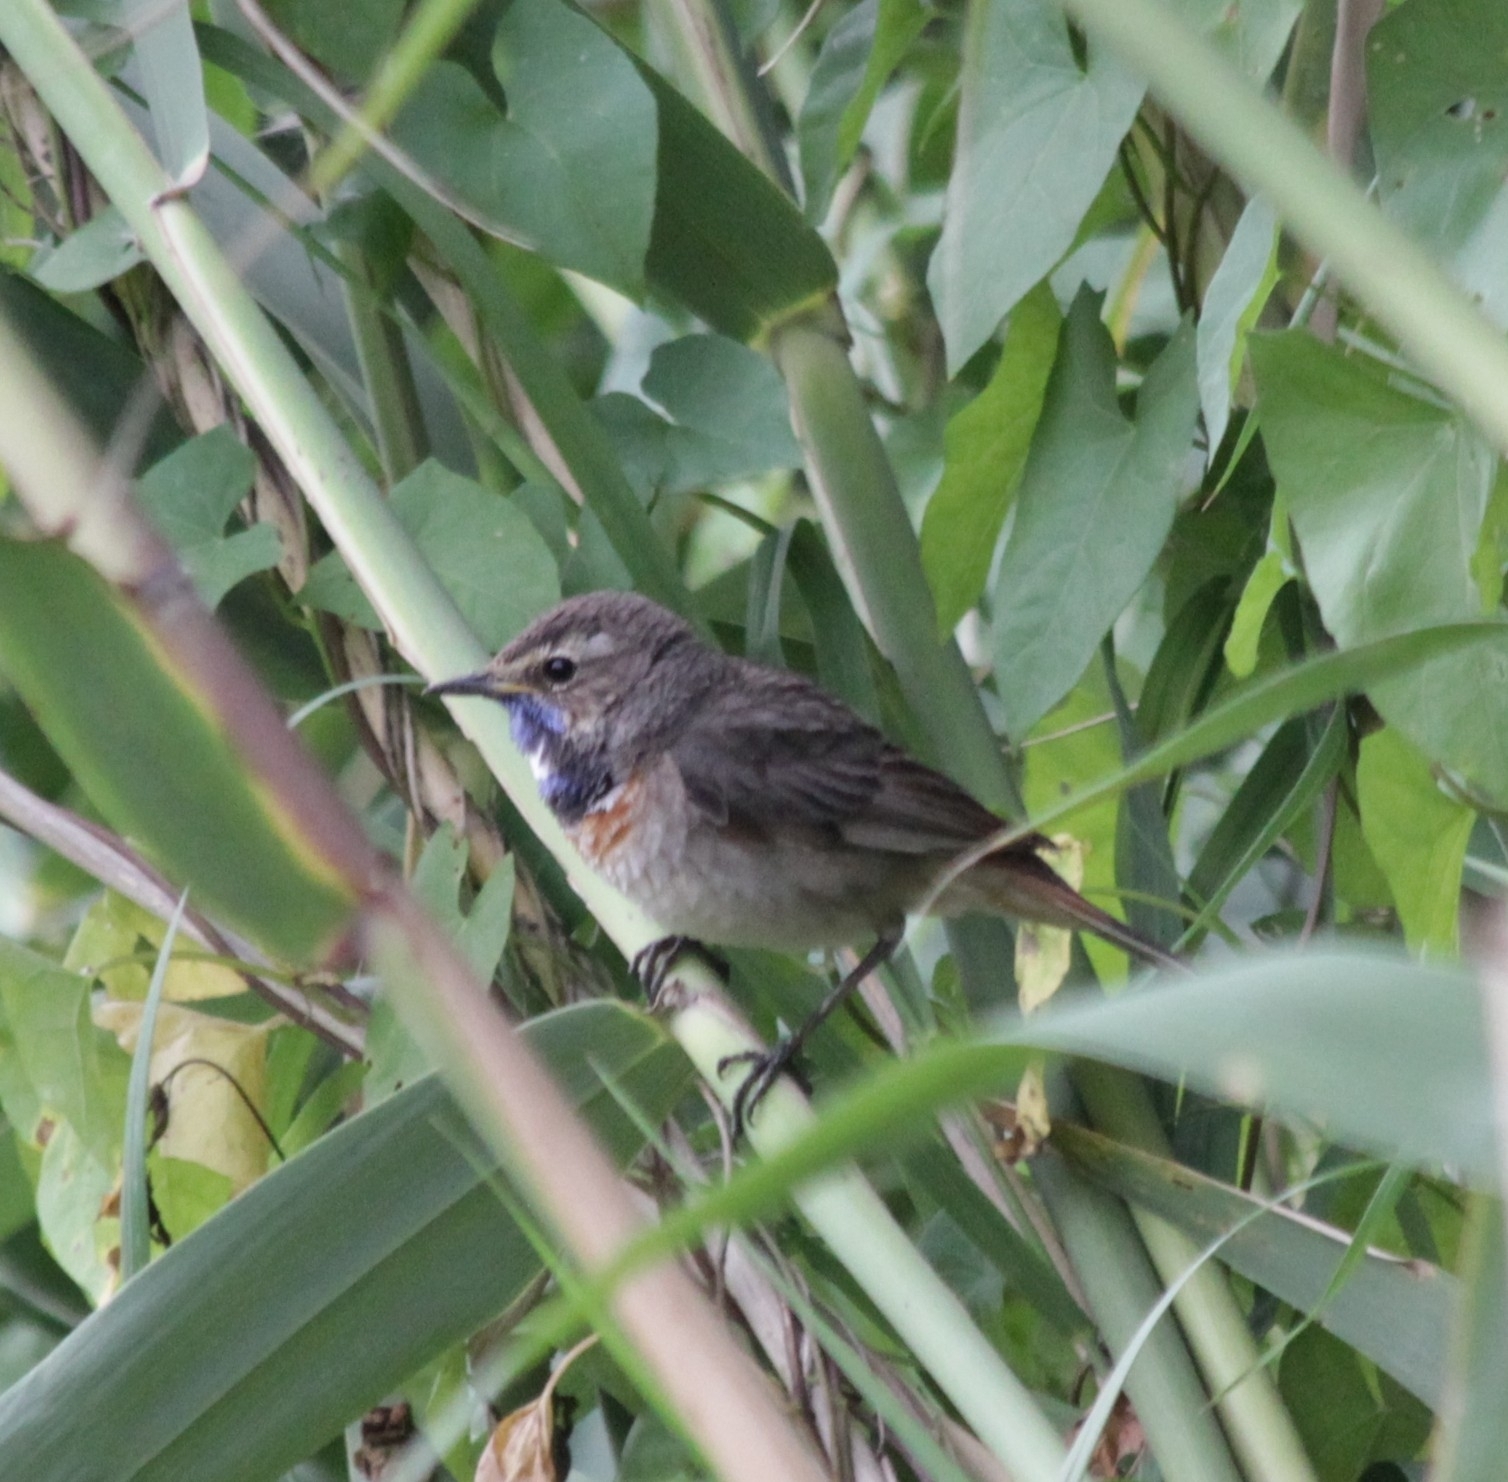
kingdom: Animalia
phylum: Chordata
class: Aves
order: Passeriformes
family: Muscicapidae
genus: Luscinia
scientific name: Luscinia svecica
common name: Bluethroat
